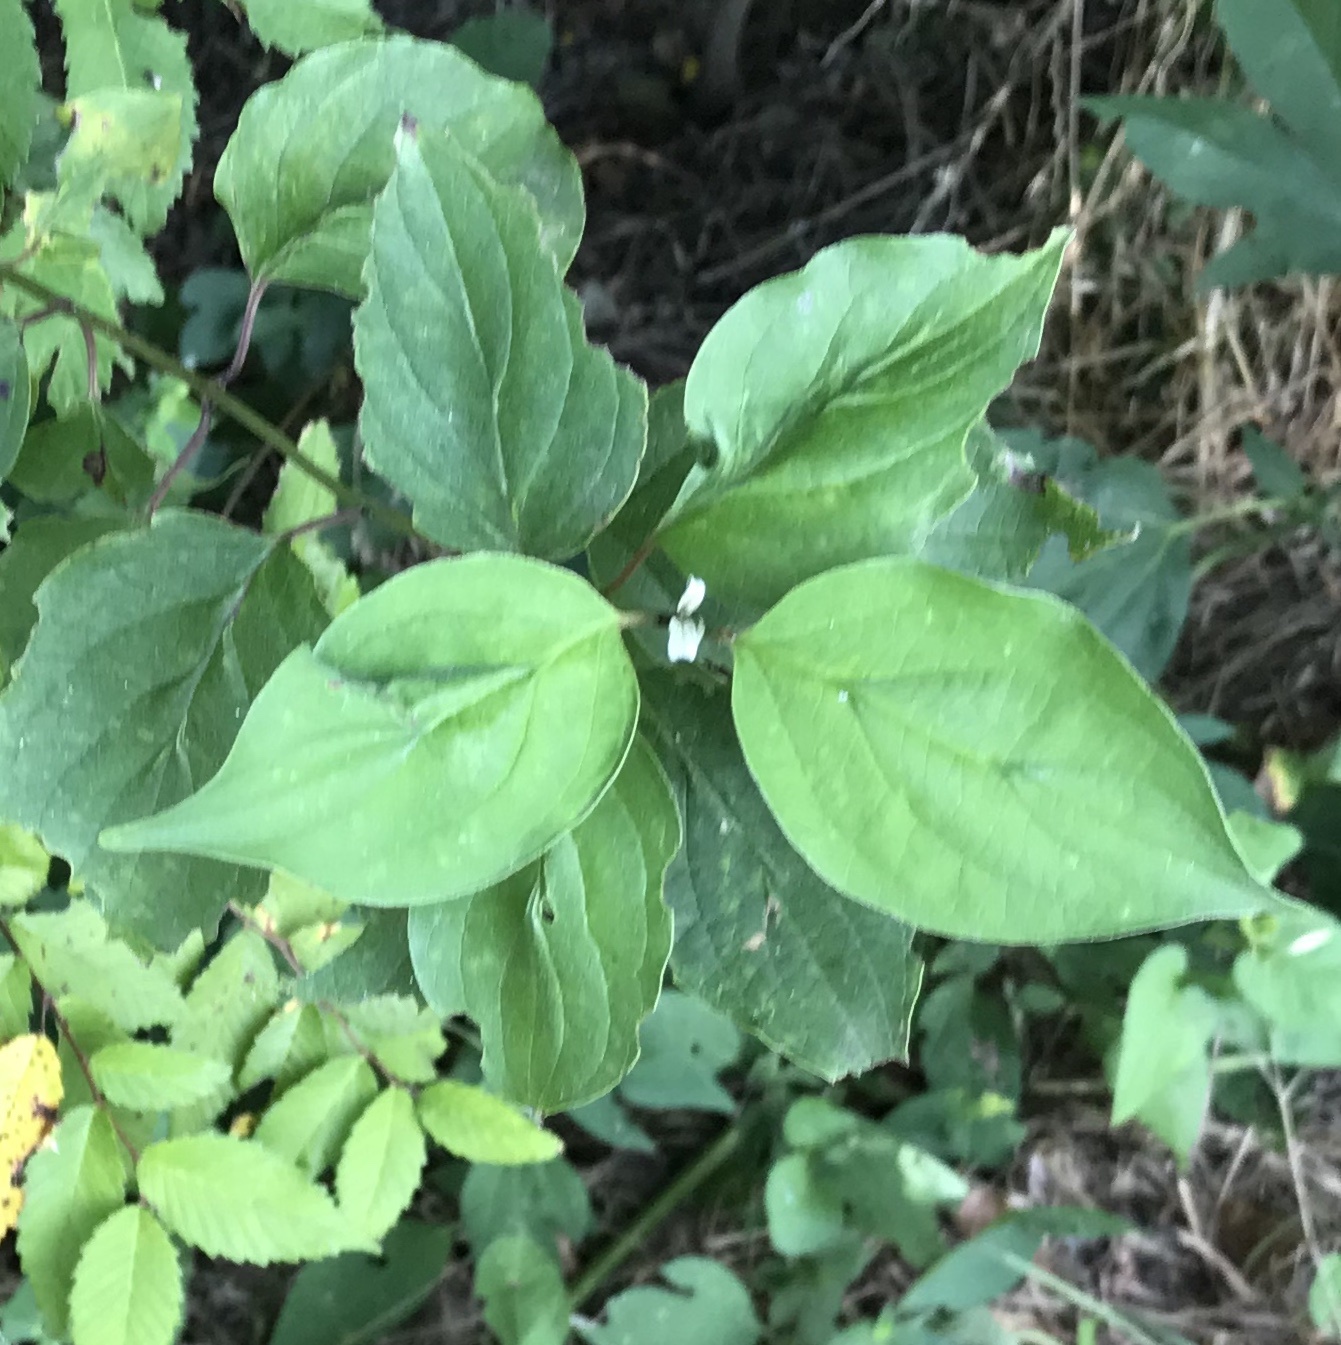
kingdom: Plantae
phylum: Tracheophyta
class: Magnoliopsida
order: Cornales
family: Cornaceae
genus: Cornus
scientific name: Cornus drummondii
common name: Rough-leaf dogwood
